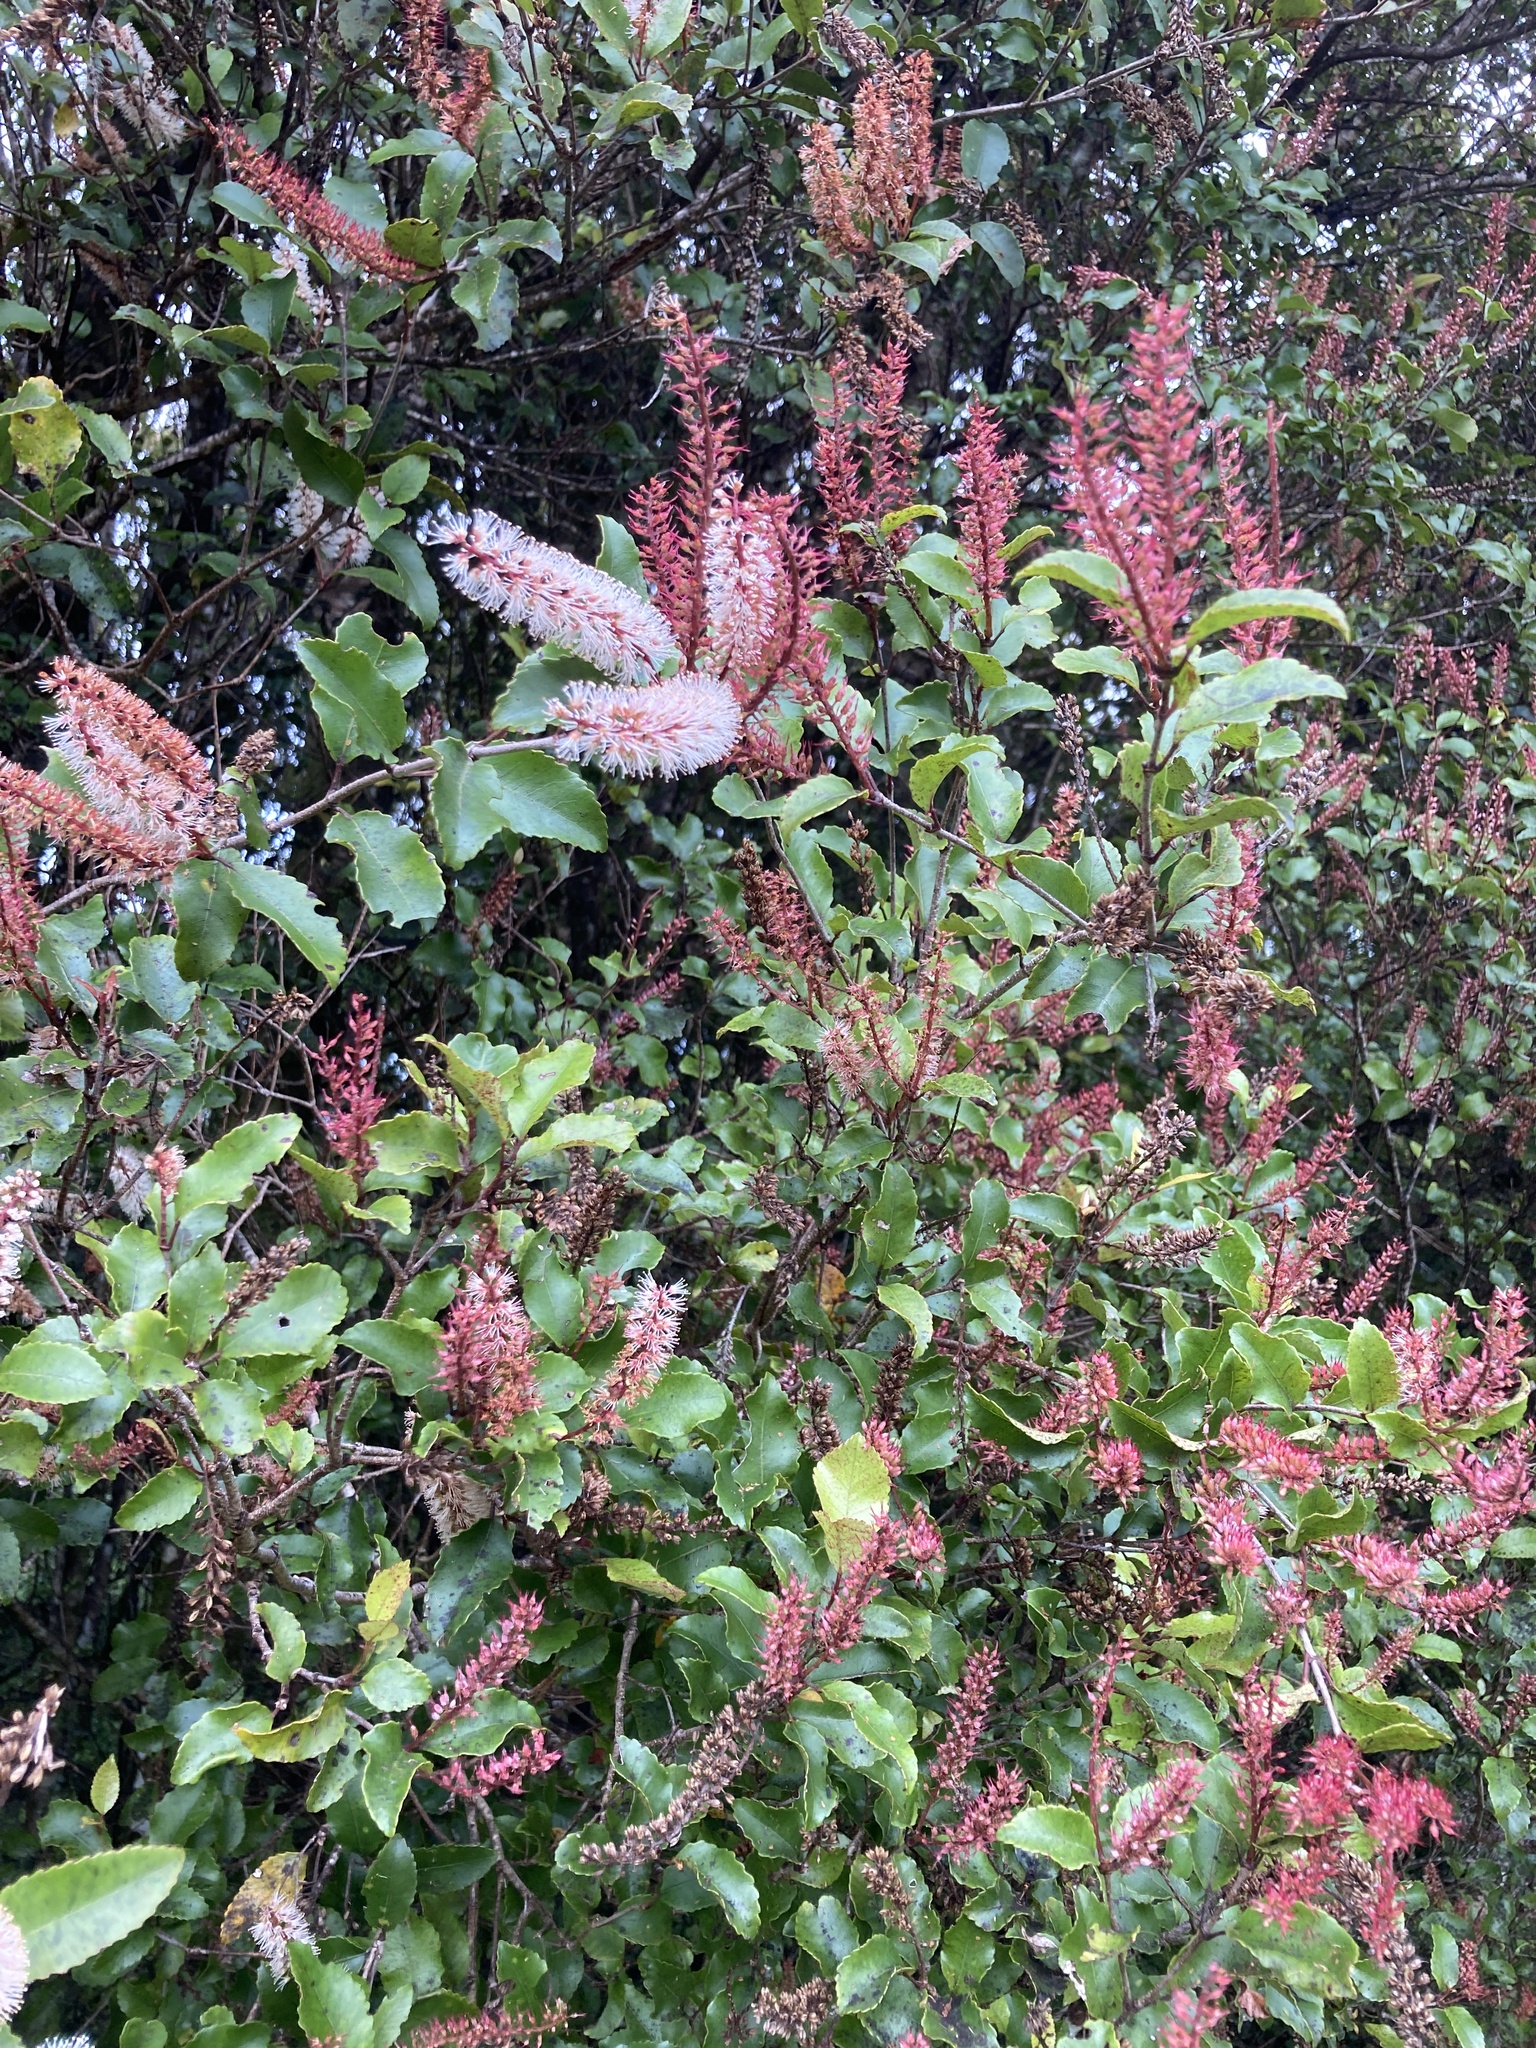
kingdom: Plantae
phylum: Tracheophyta
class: Magnoliopsida
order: Oxalidales
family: Cunoniaceae
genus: Pterophylla
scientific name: Pterophylla racemosa
